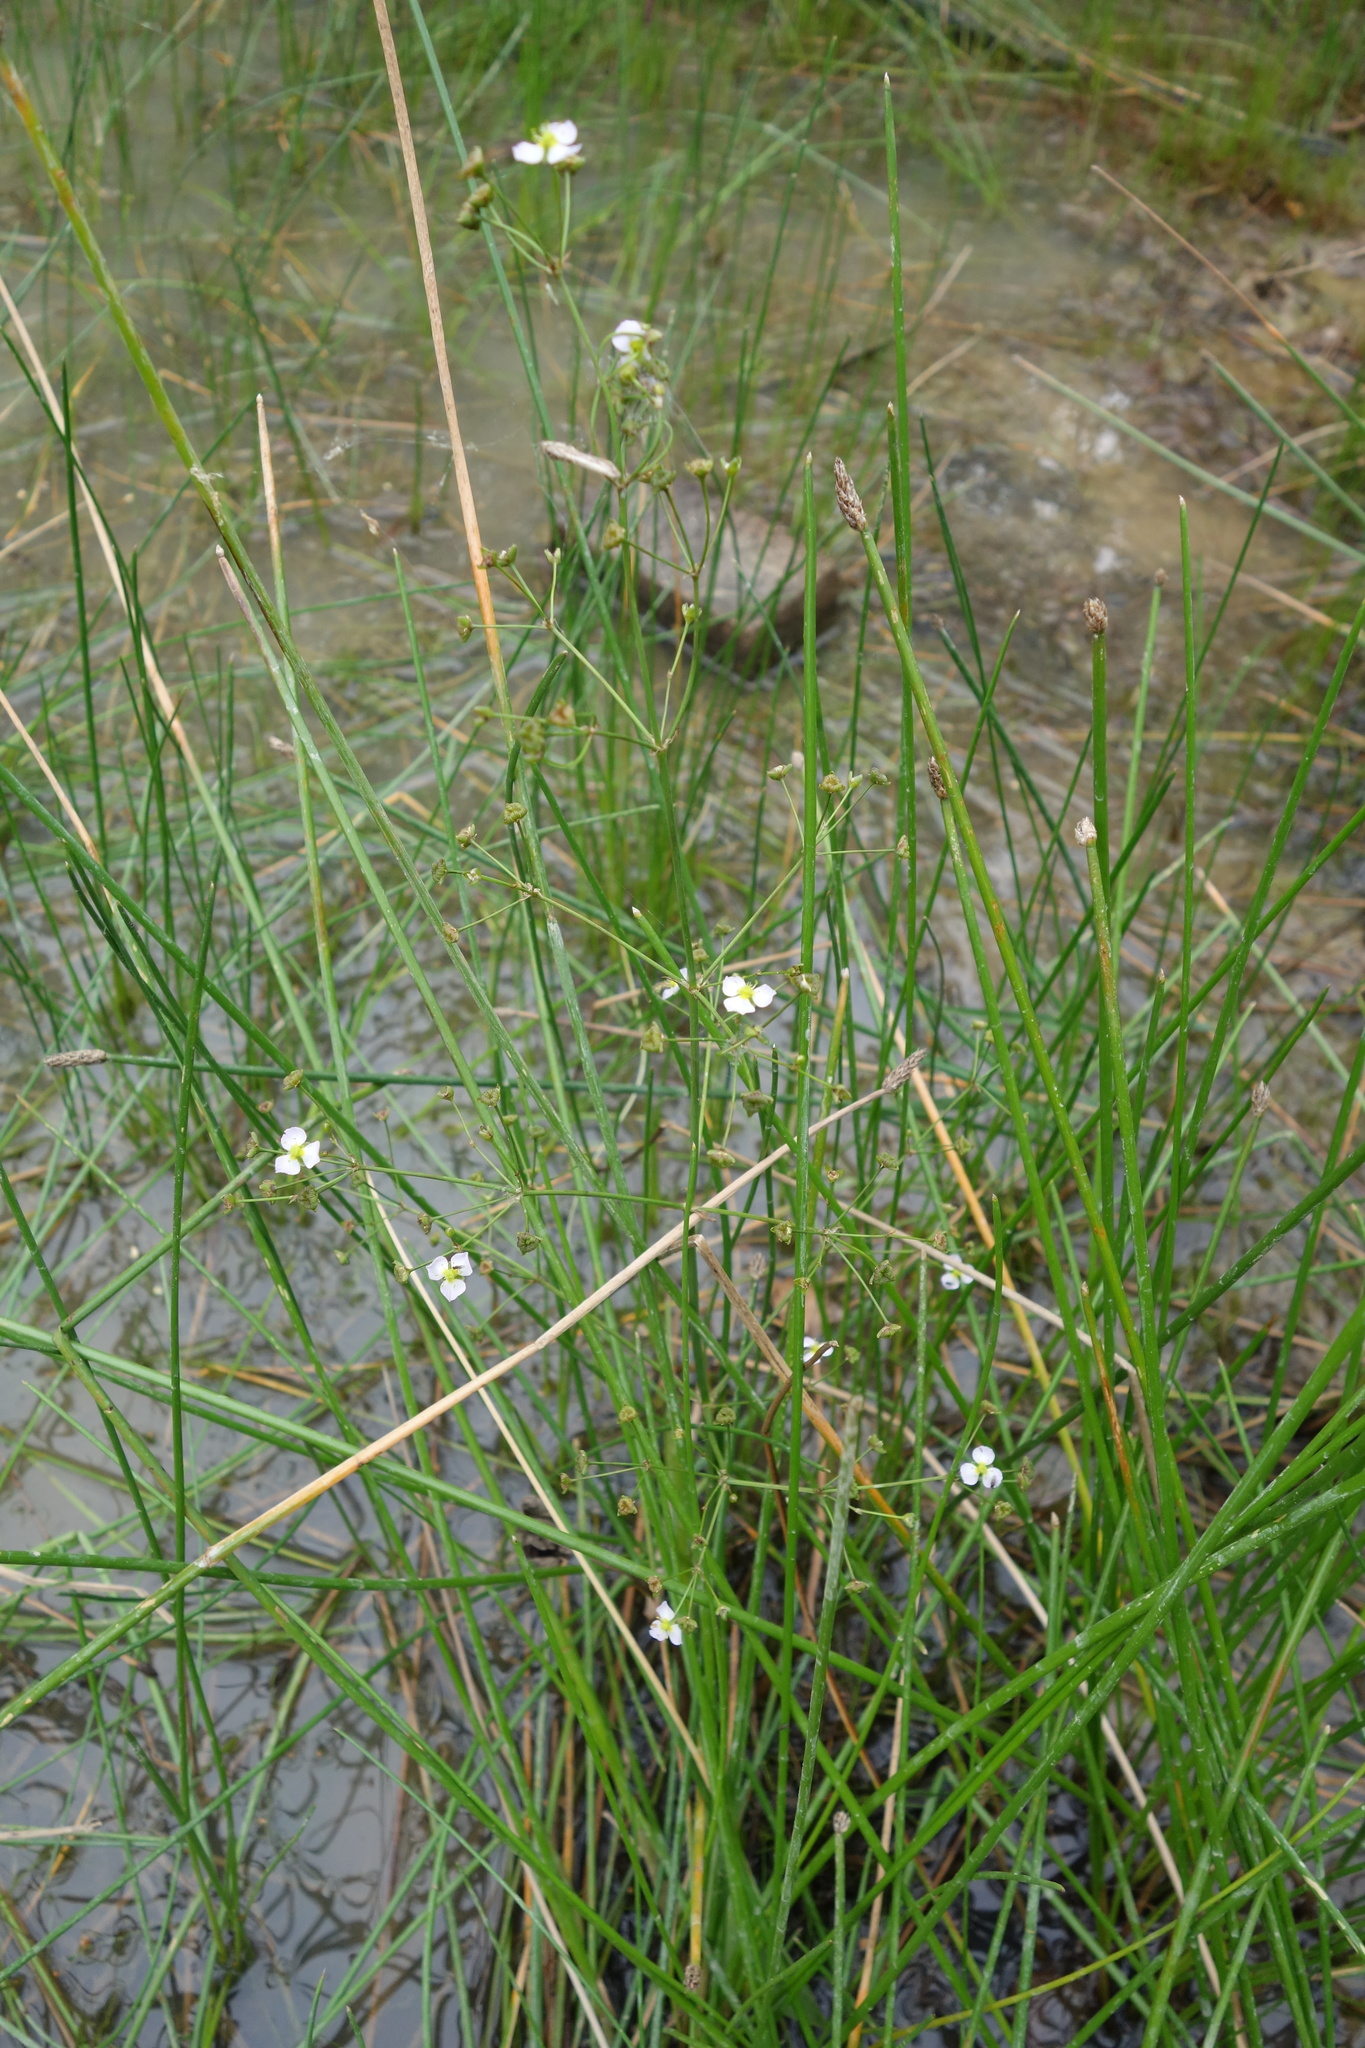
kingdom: Plantae
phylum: Tracheophyta
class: Liliopsida
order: Alismatales
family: Alismataceae
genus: Alisma
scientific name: Alisma plantago-aquatica
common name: Water-plantain
